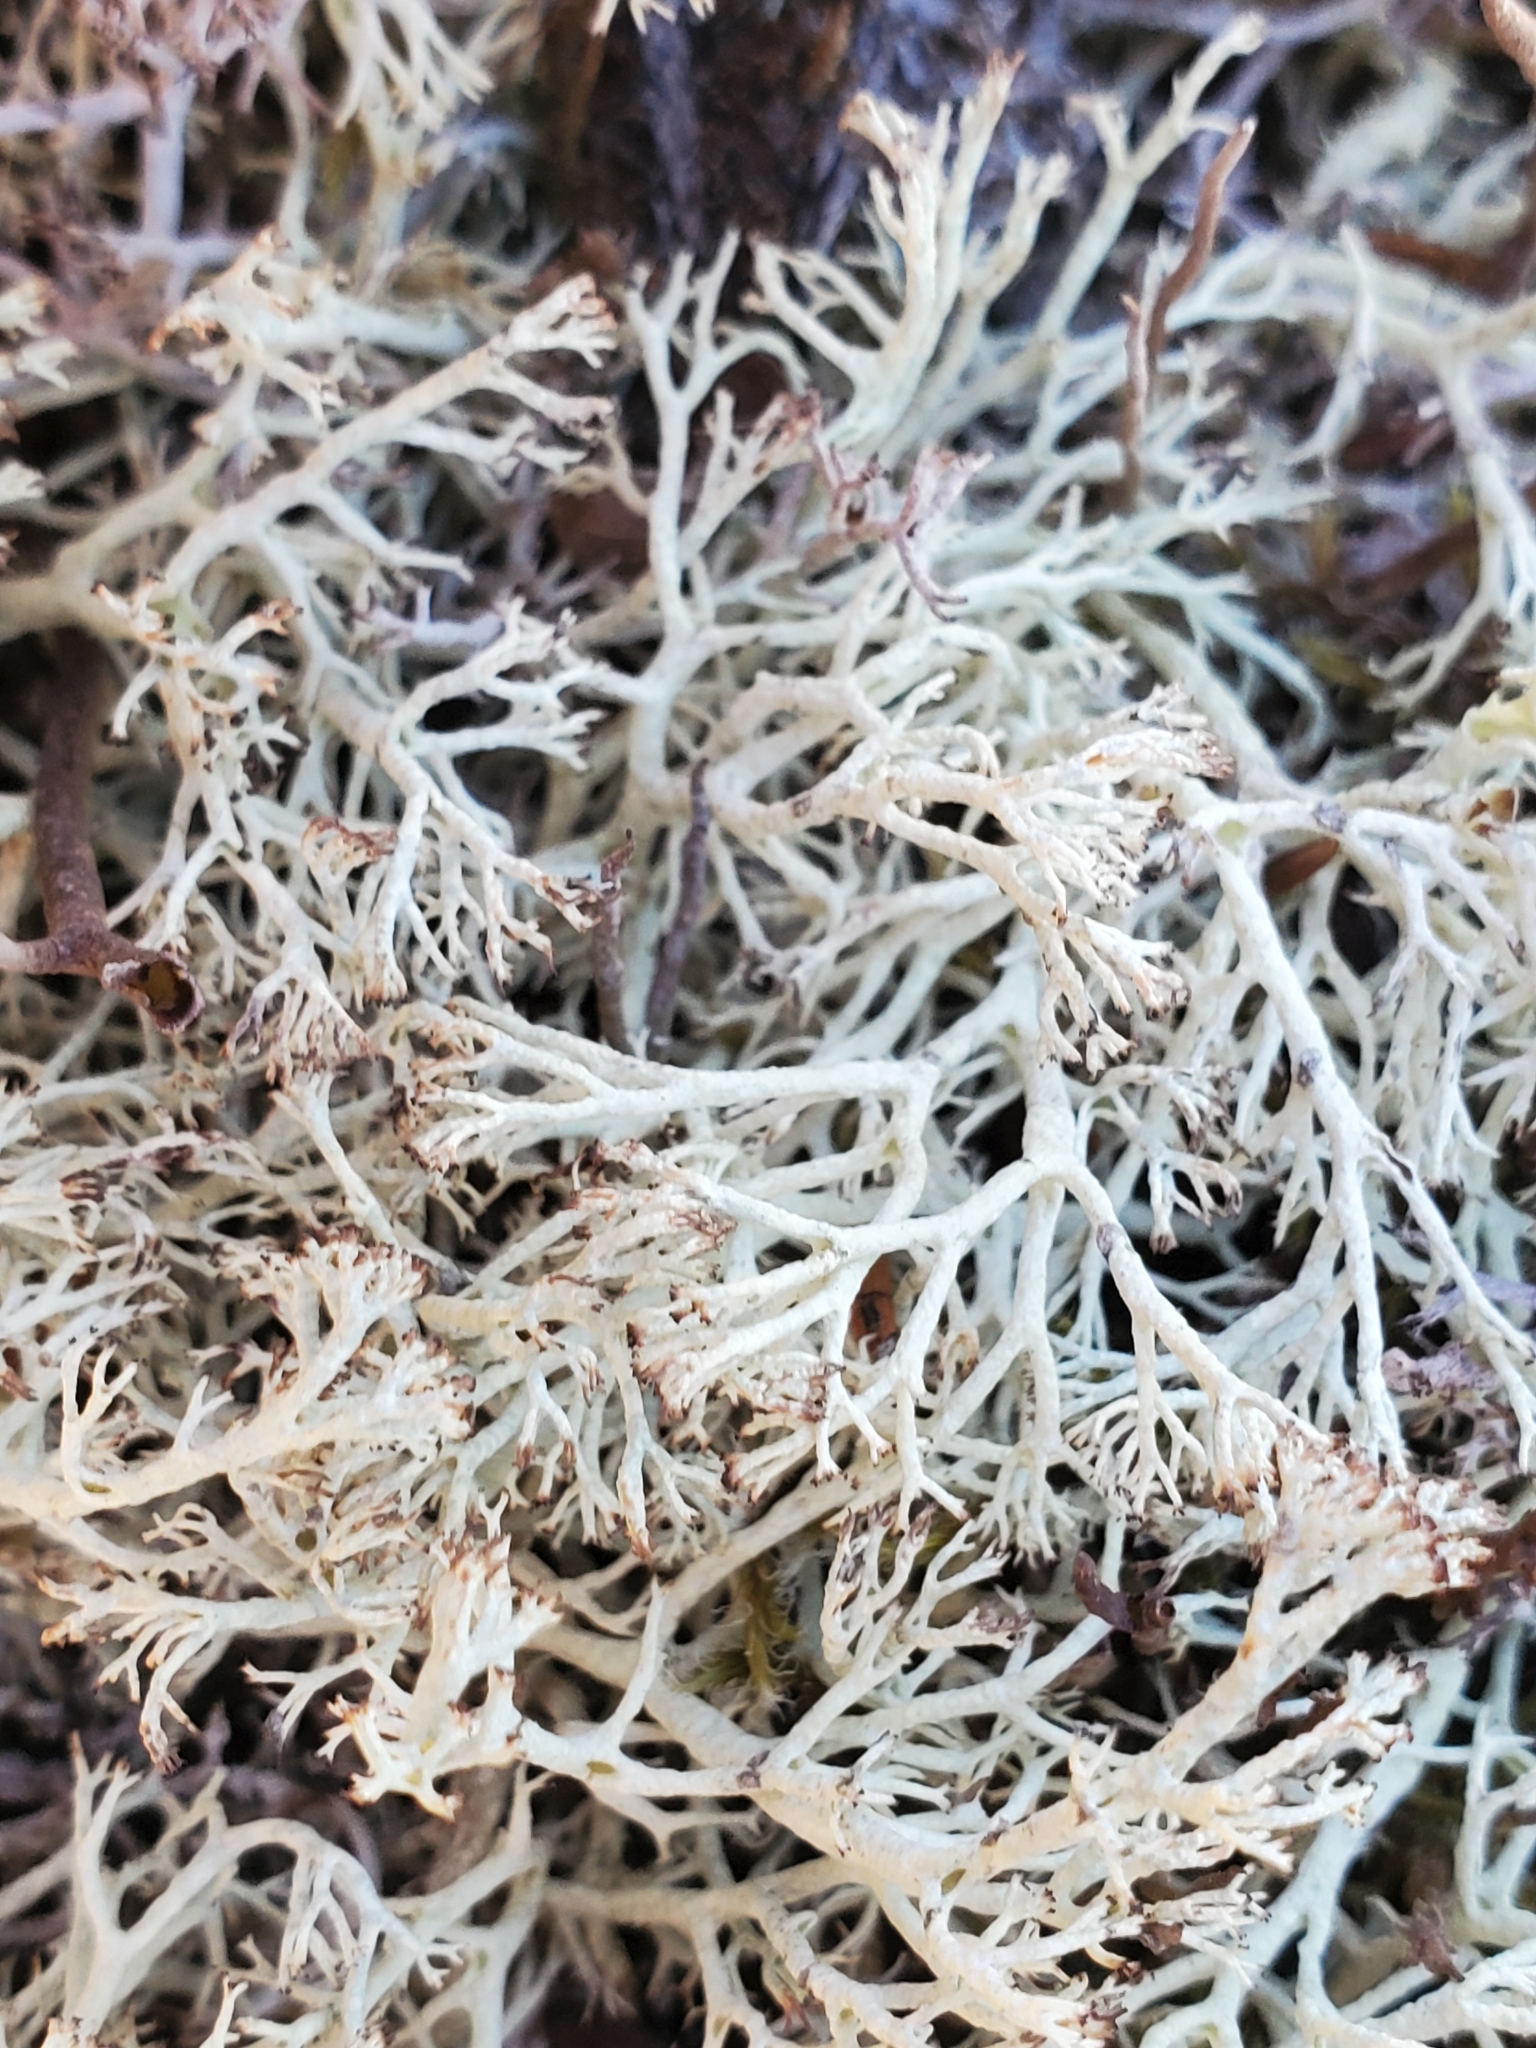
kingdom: Fungi
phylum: Ascomycota
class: Lecanoromycetes
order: Lecanorales
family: Cladoniaceae
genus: Cladonia
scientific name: Cladonia rangiferina
